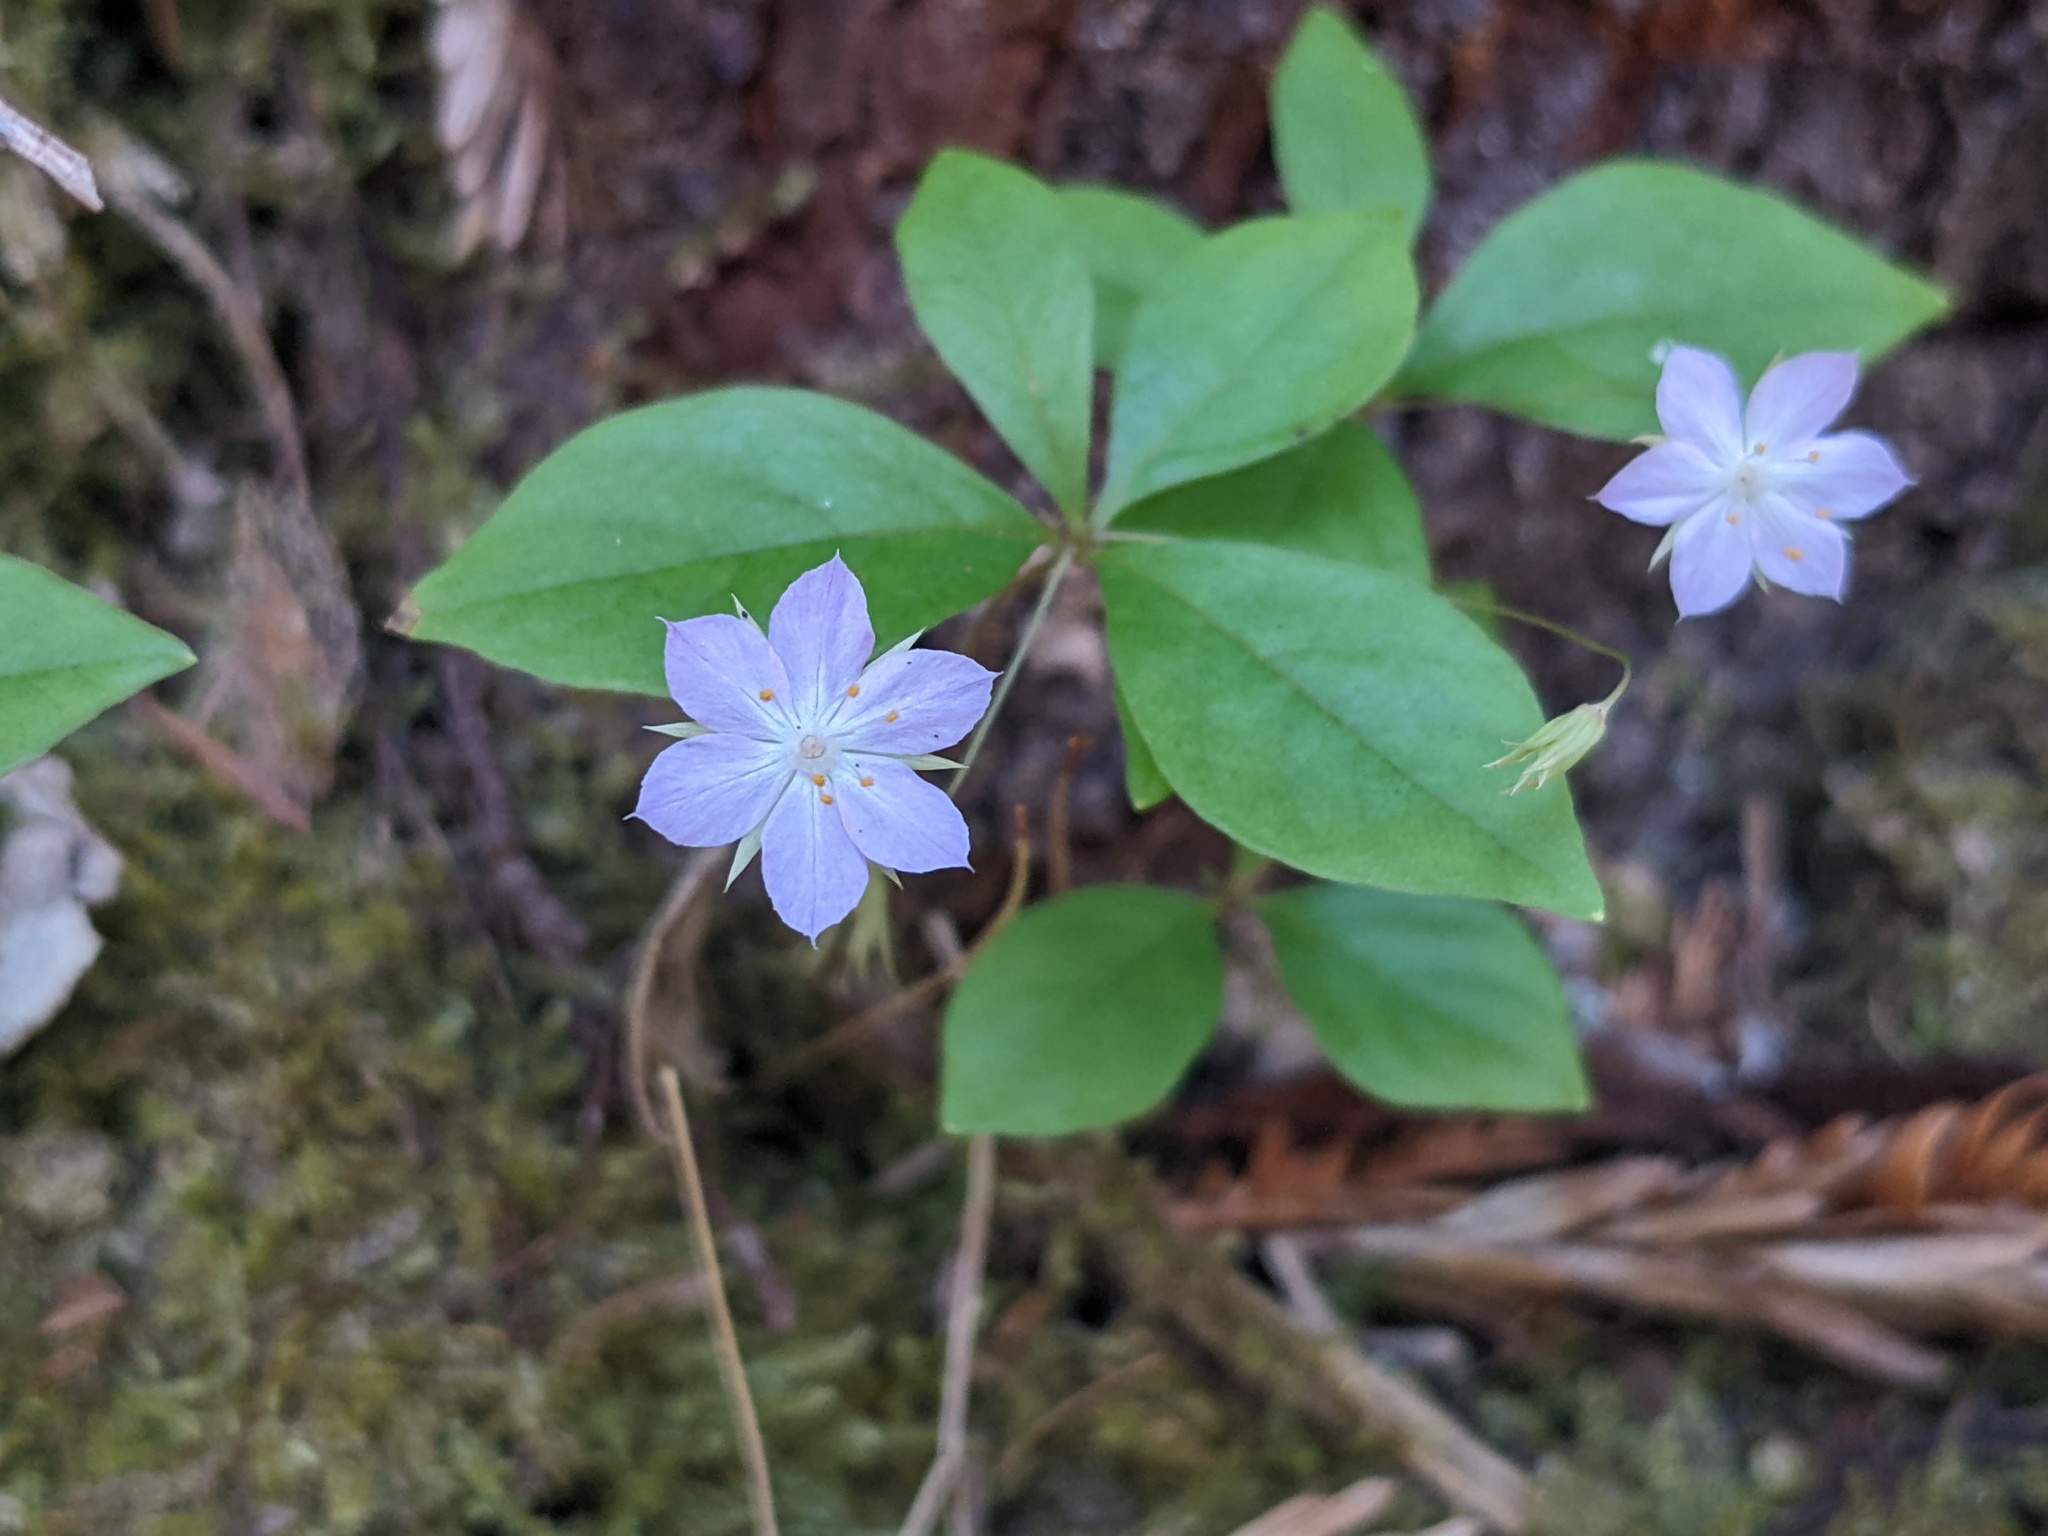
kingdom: Plantae
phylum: Tracheophyta
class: Magnoliopsida
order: Ericales
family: Primulaceae
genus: Lysimachia
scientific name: Lysimachia latifolia
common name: Pacific starflower
